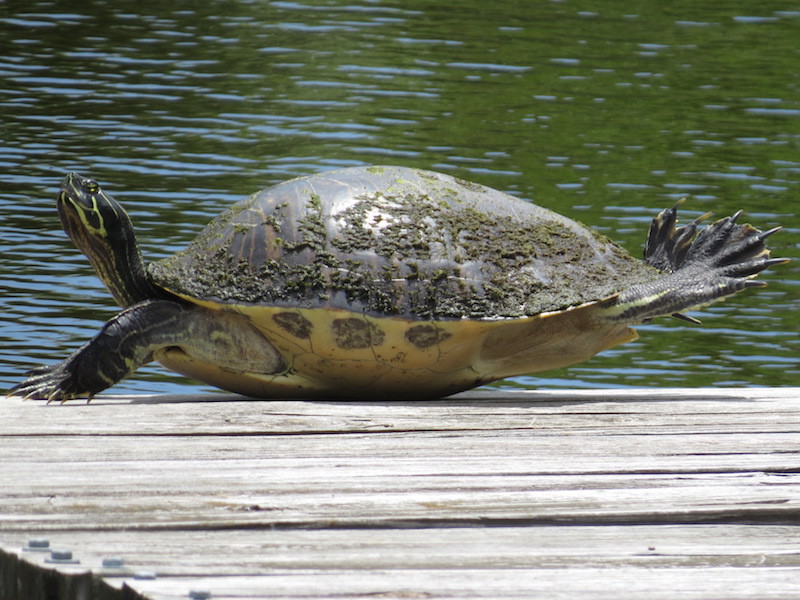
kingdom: Animalia
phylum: Chordata
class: Testudines
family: Emydidae
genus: Pseudemys
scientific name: Pseudemys peninsularis
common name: Peninsula cooter
